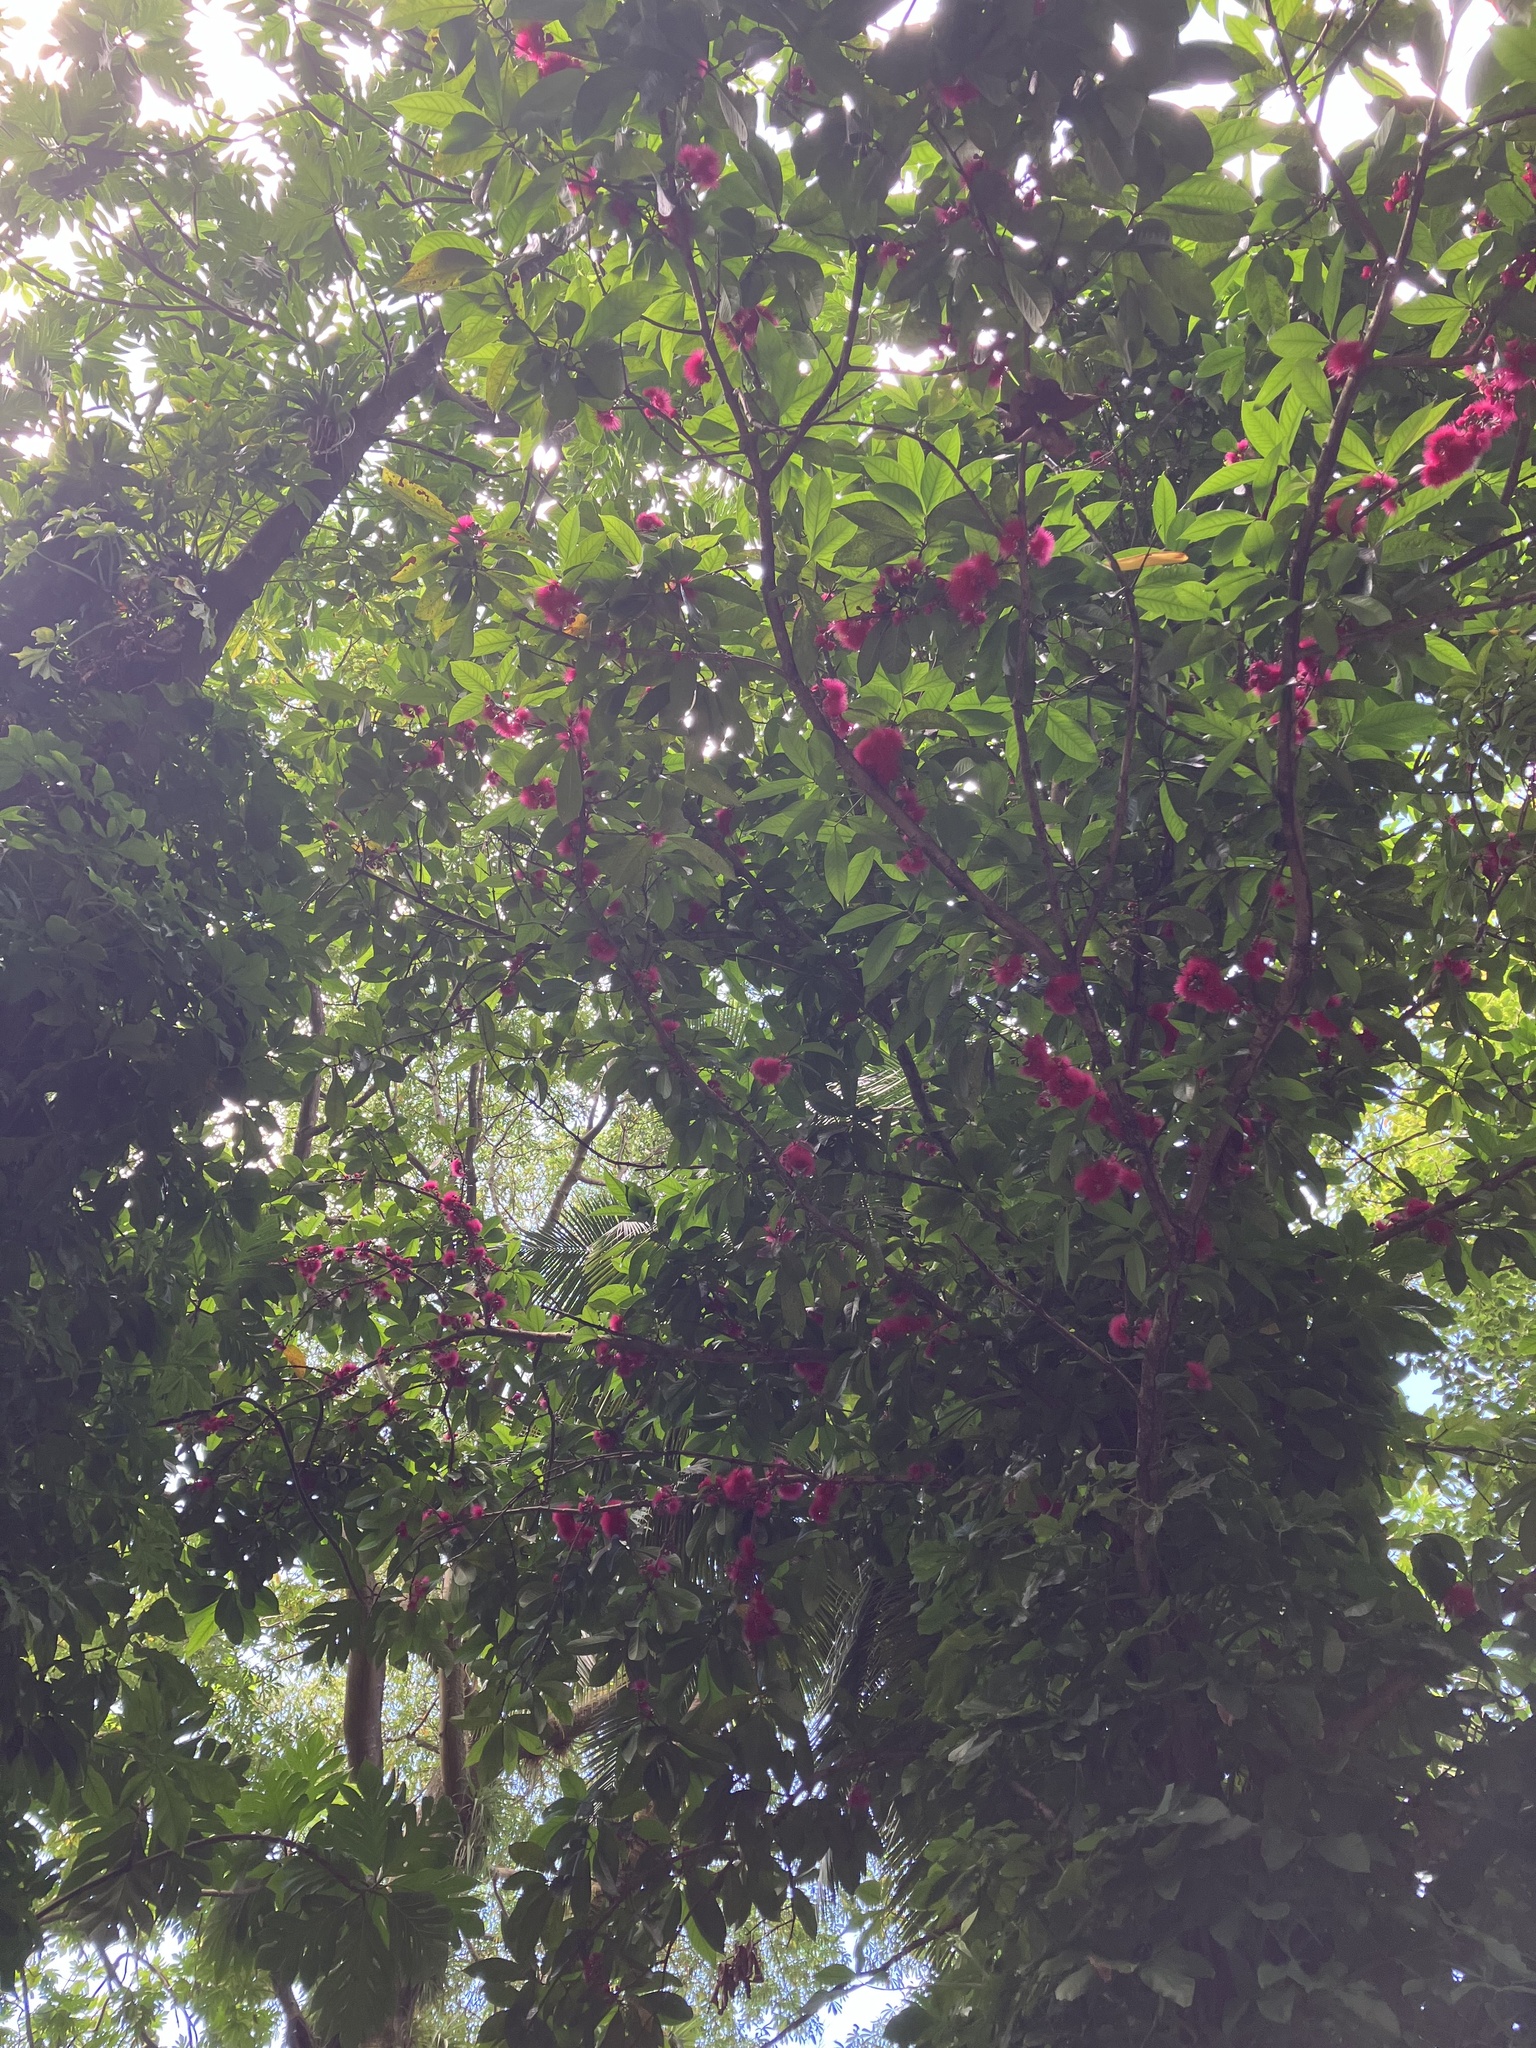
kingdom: Plantae
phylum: Tracheophyta
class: Magnoliopsida
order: Myrtales
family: Myrtaceae
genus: Syzygium
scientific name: Syzygium malaccense
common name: Malaysian apple
